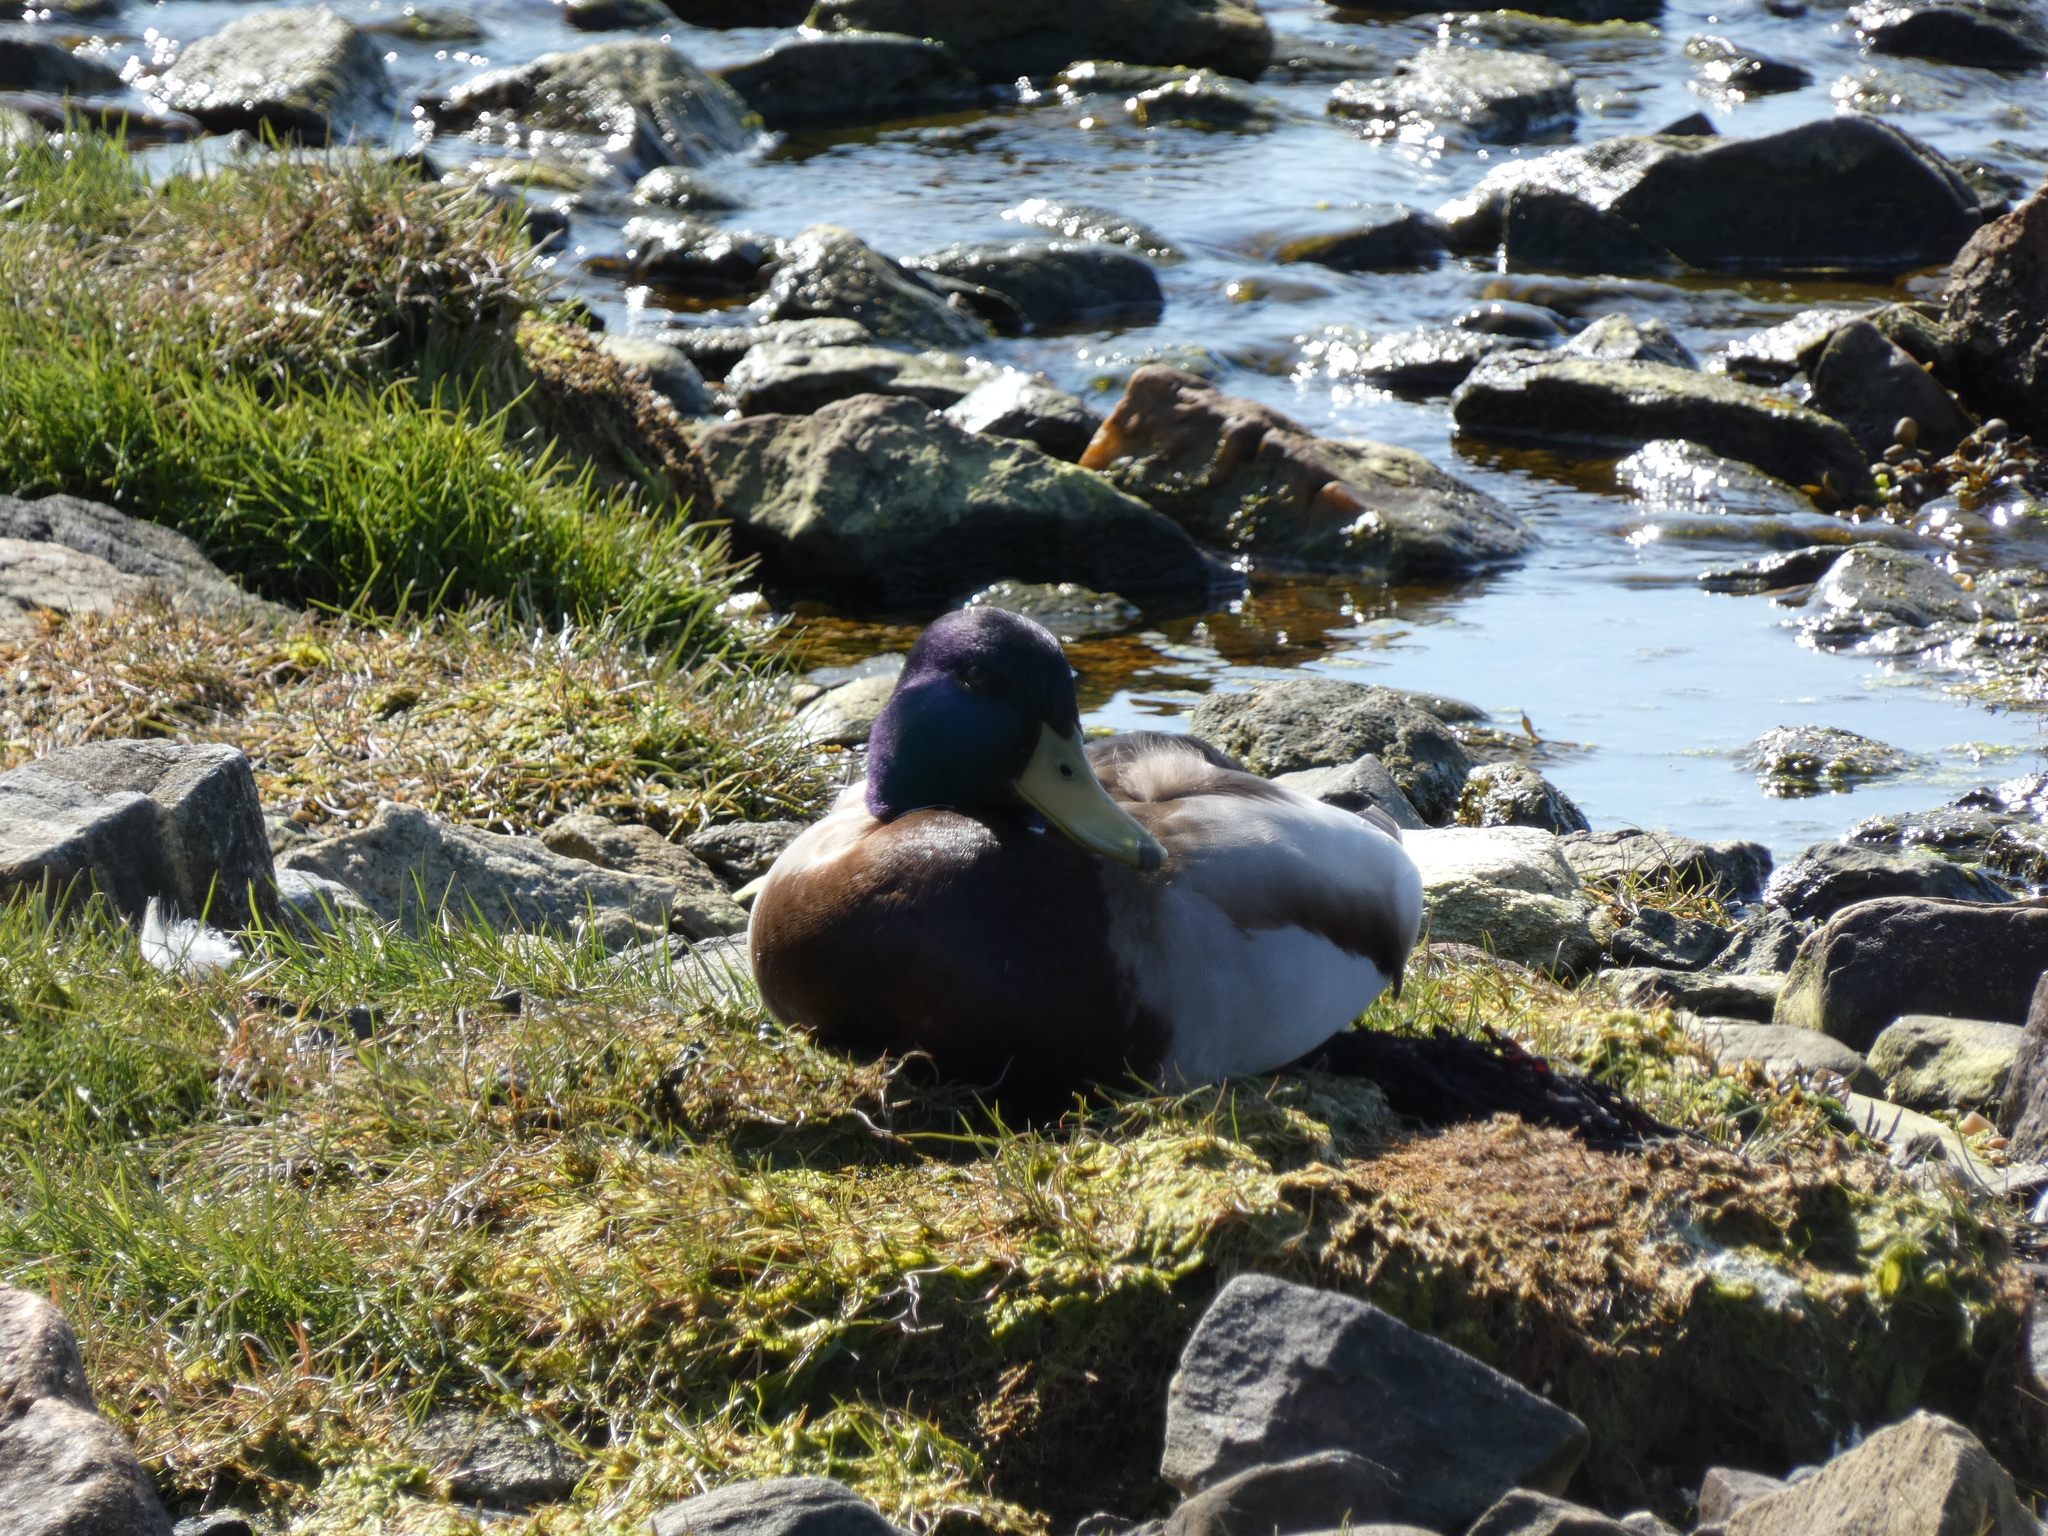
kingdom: Animalia
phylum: Chordata
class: Aves
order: Anseriformes
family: Anatidae
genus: Anas
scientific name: Anas platyrhynchos
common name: Mallard
